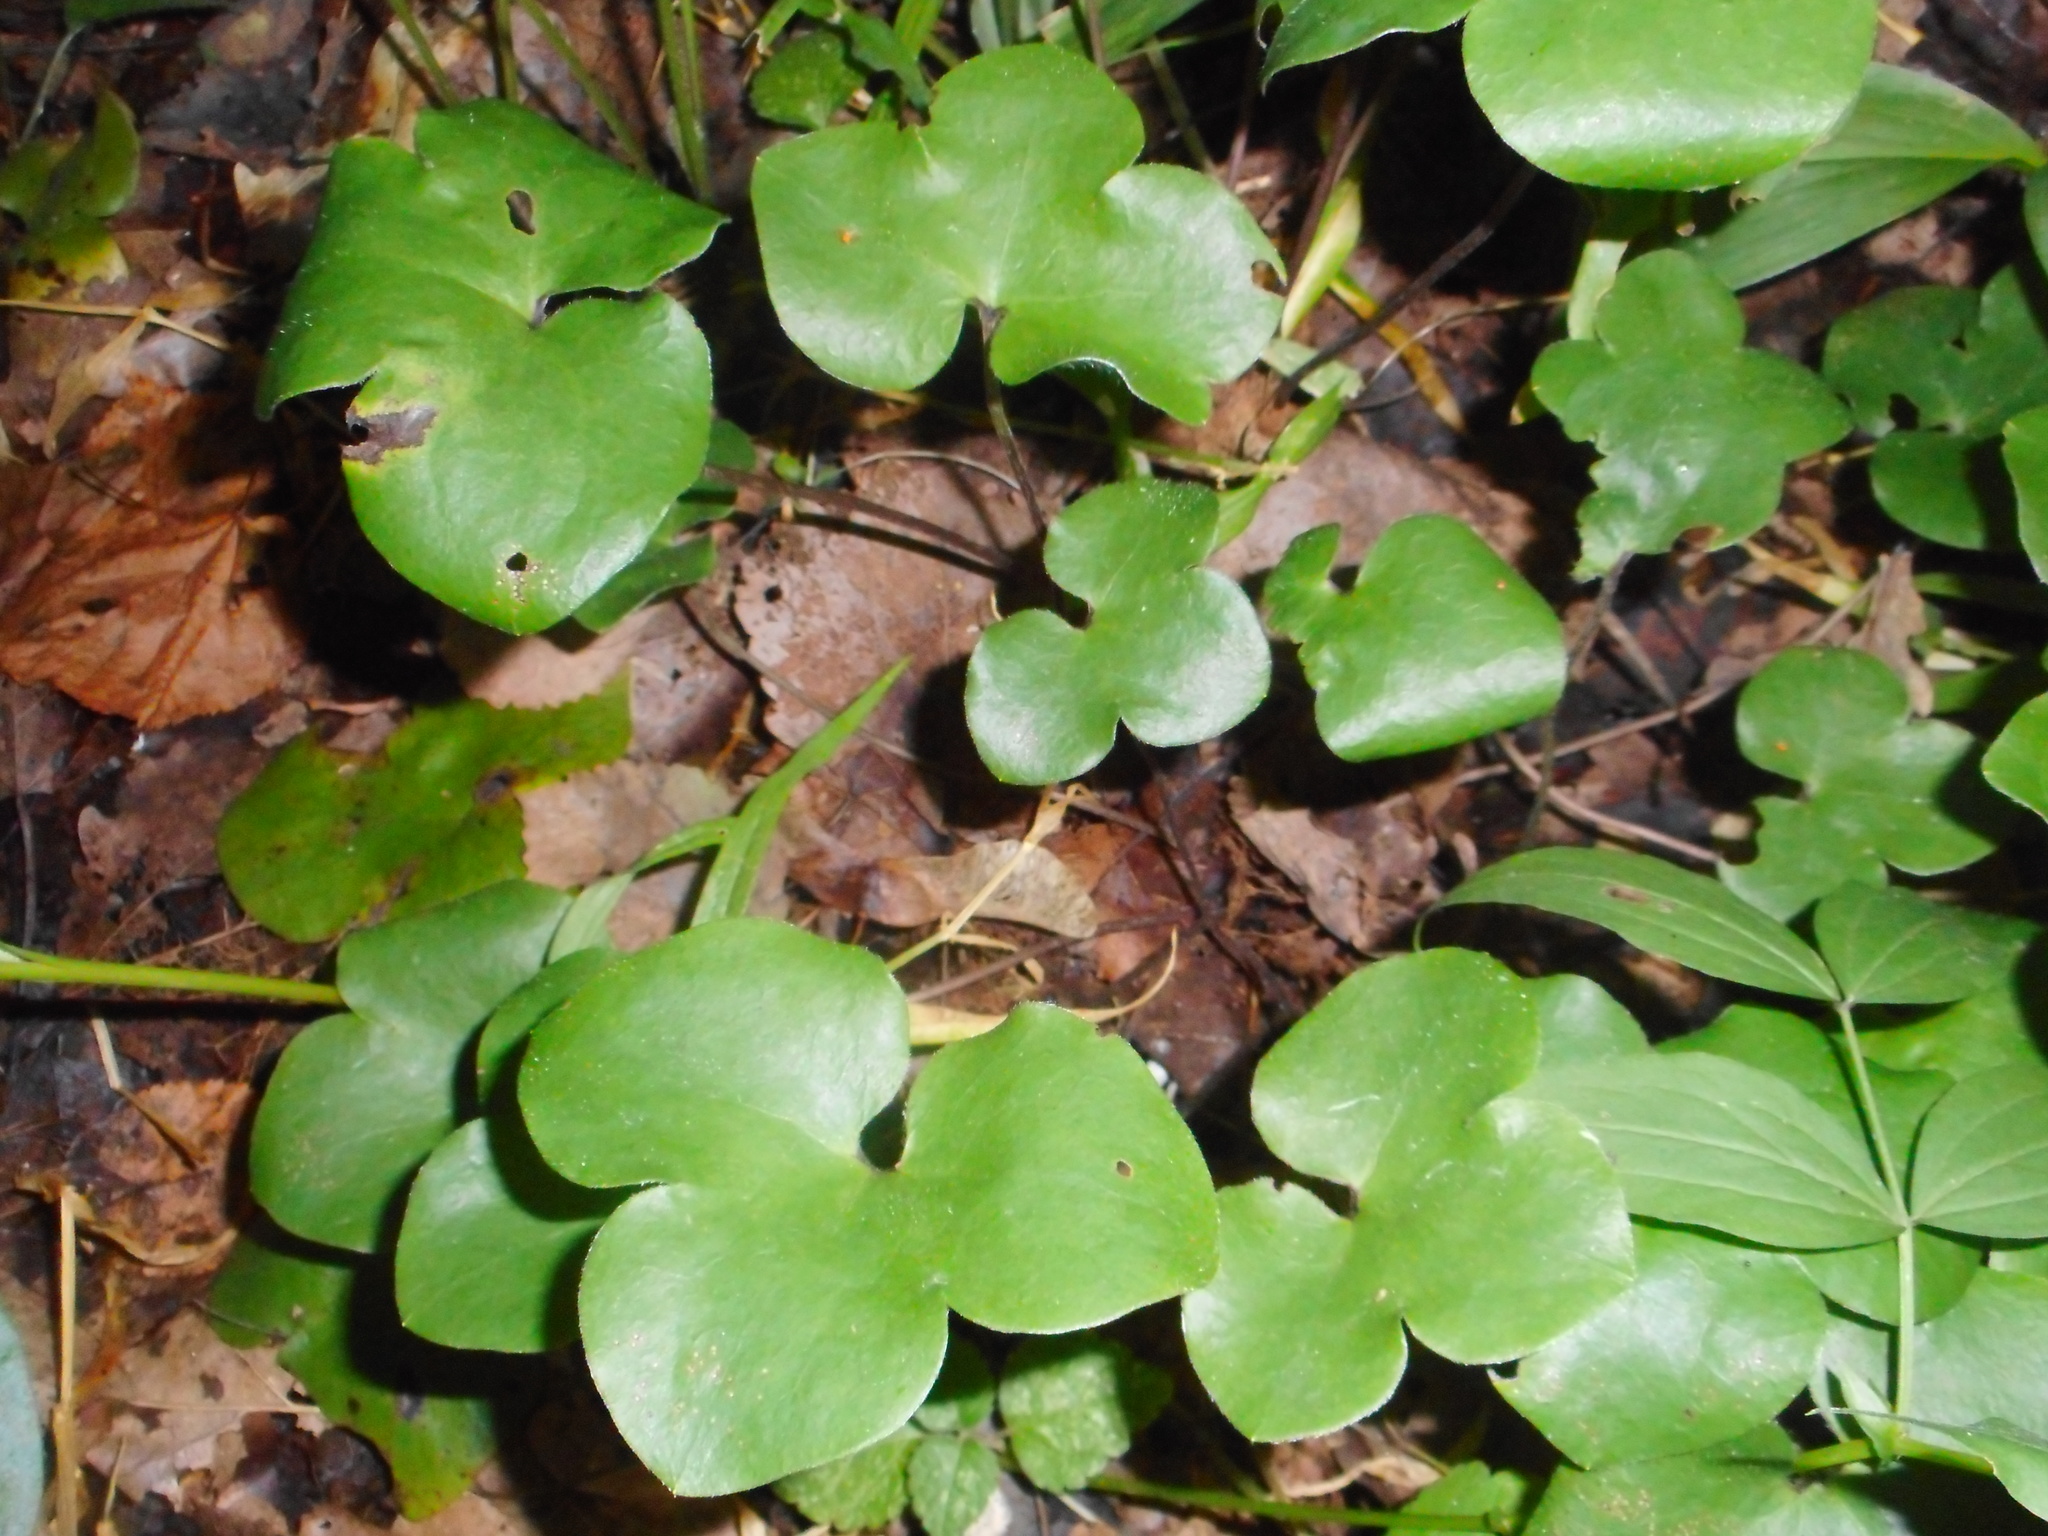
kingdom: Plantae
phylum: Tracheophyta
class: Magnoliopsida
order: Ranunculales
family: Ranunculaceae
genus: Hepatica
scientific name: Hepatica nobilis
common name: Liverleaf
